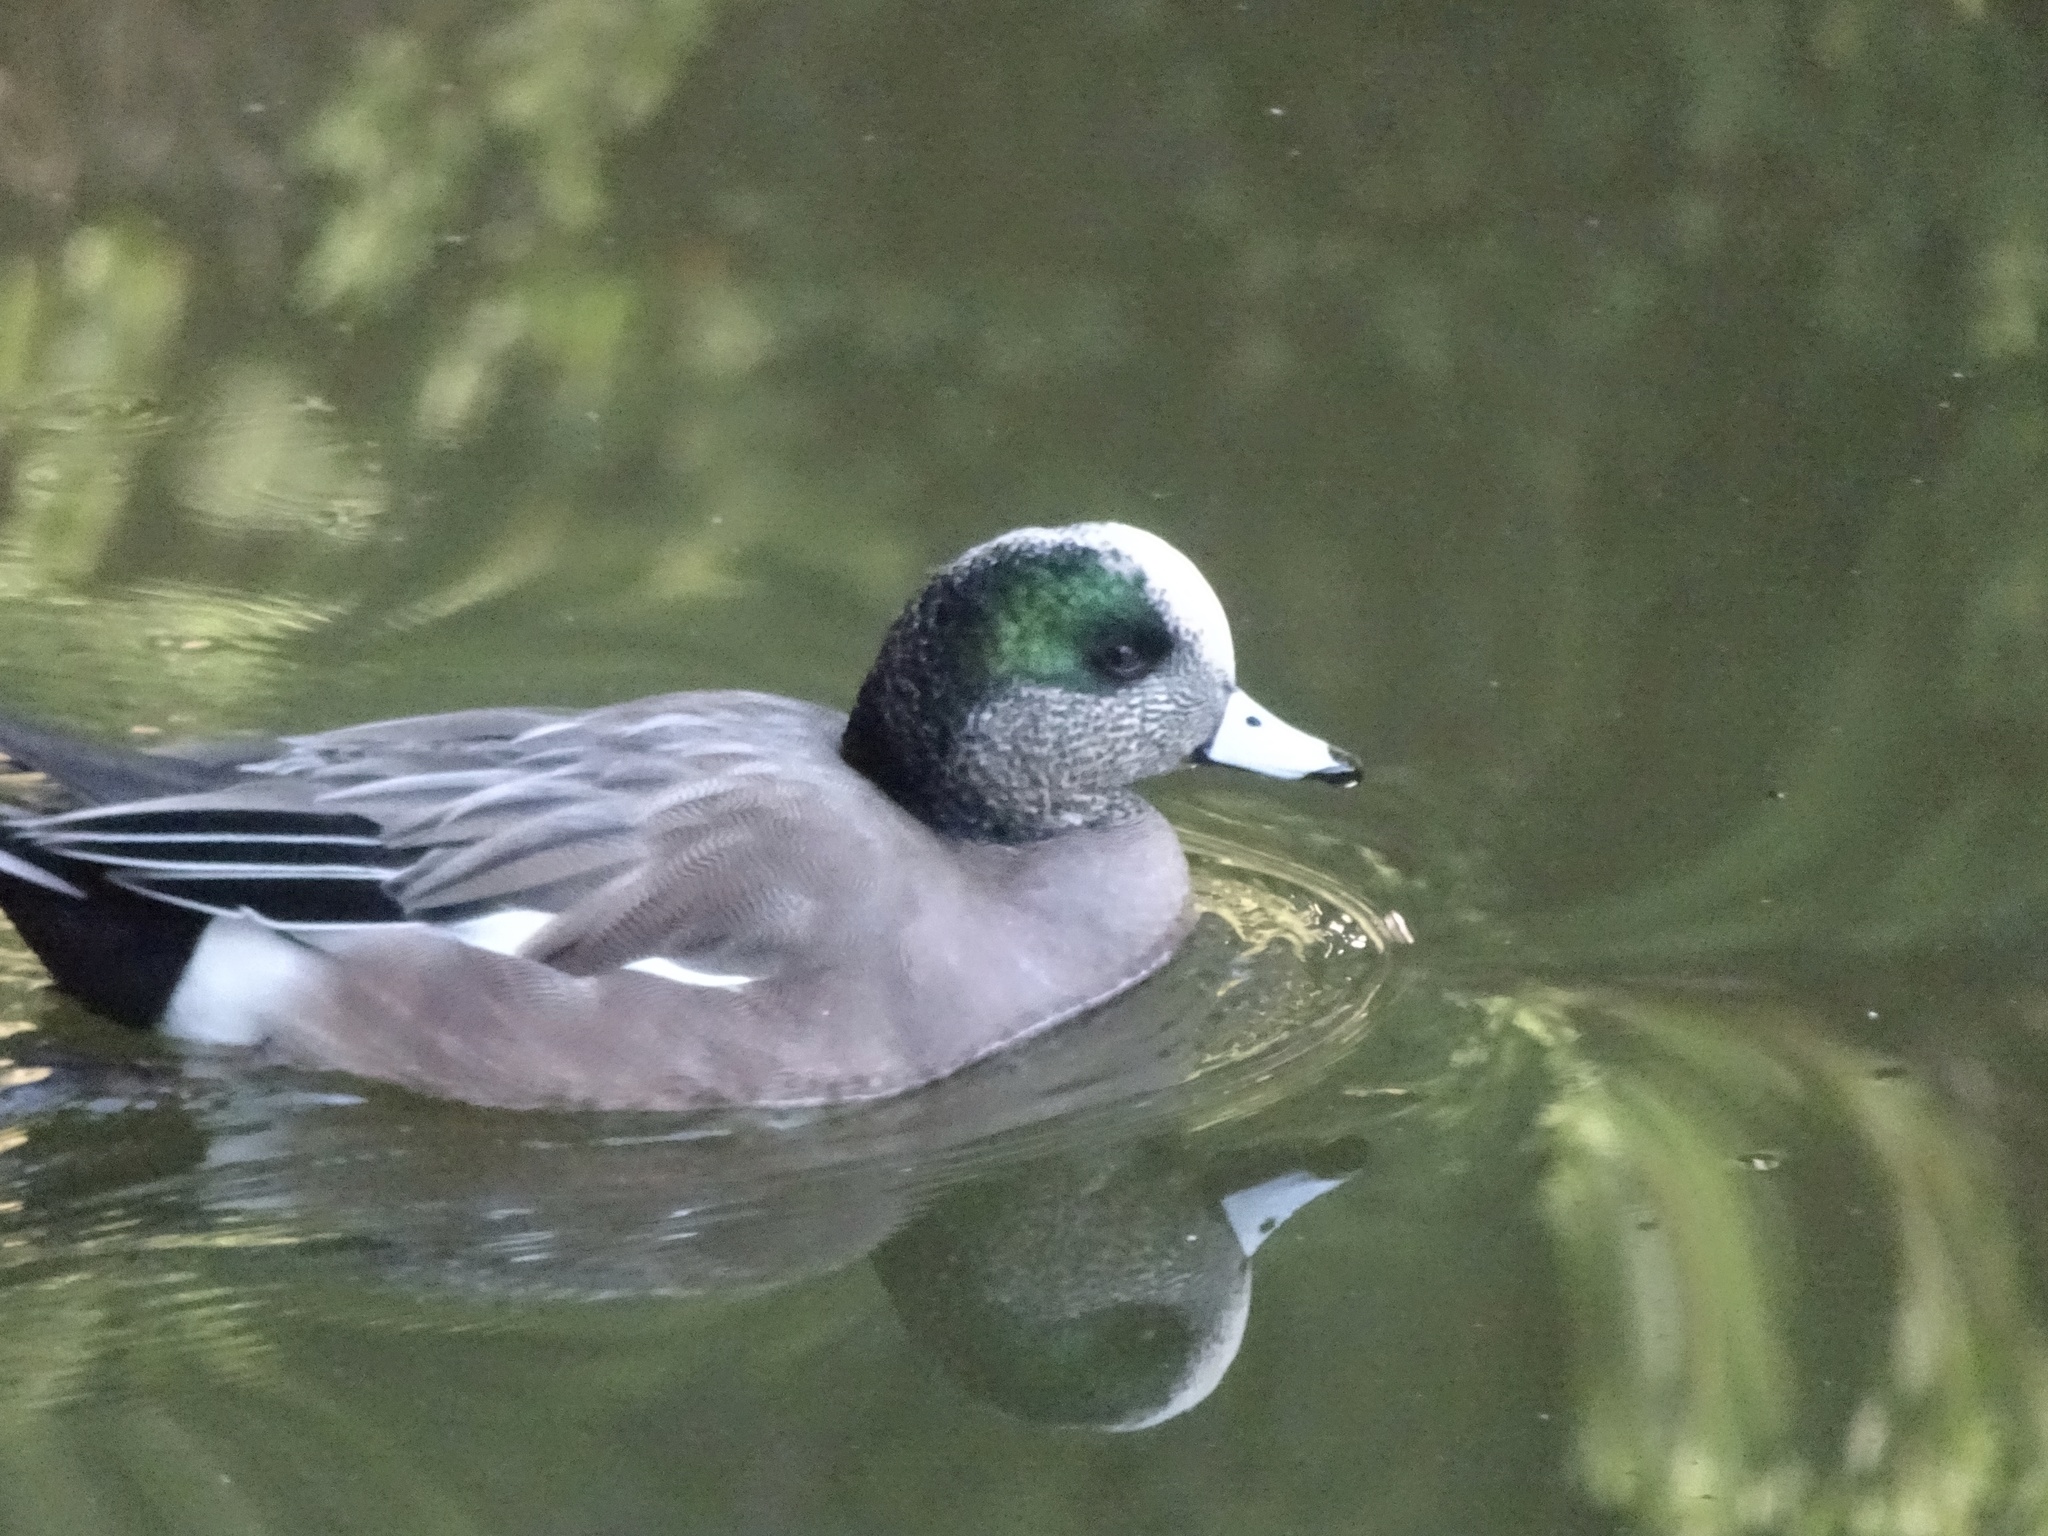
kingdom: Animalia
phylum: Chordata
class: Aves
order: Anseriformes
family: Anatidae
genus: Mareca
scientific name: Mareca americana
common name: American wigeon
